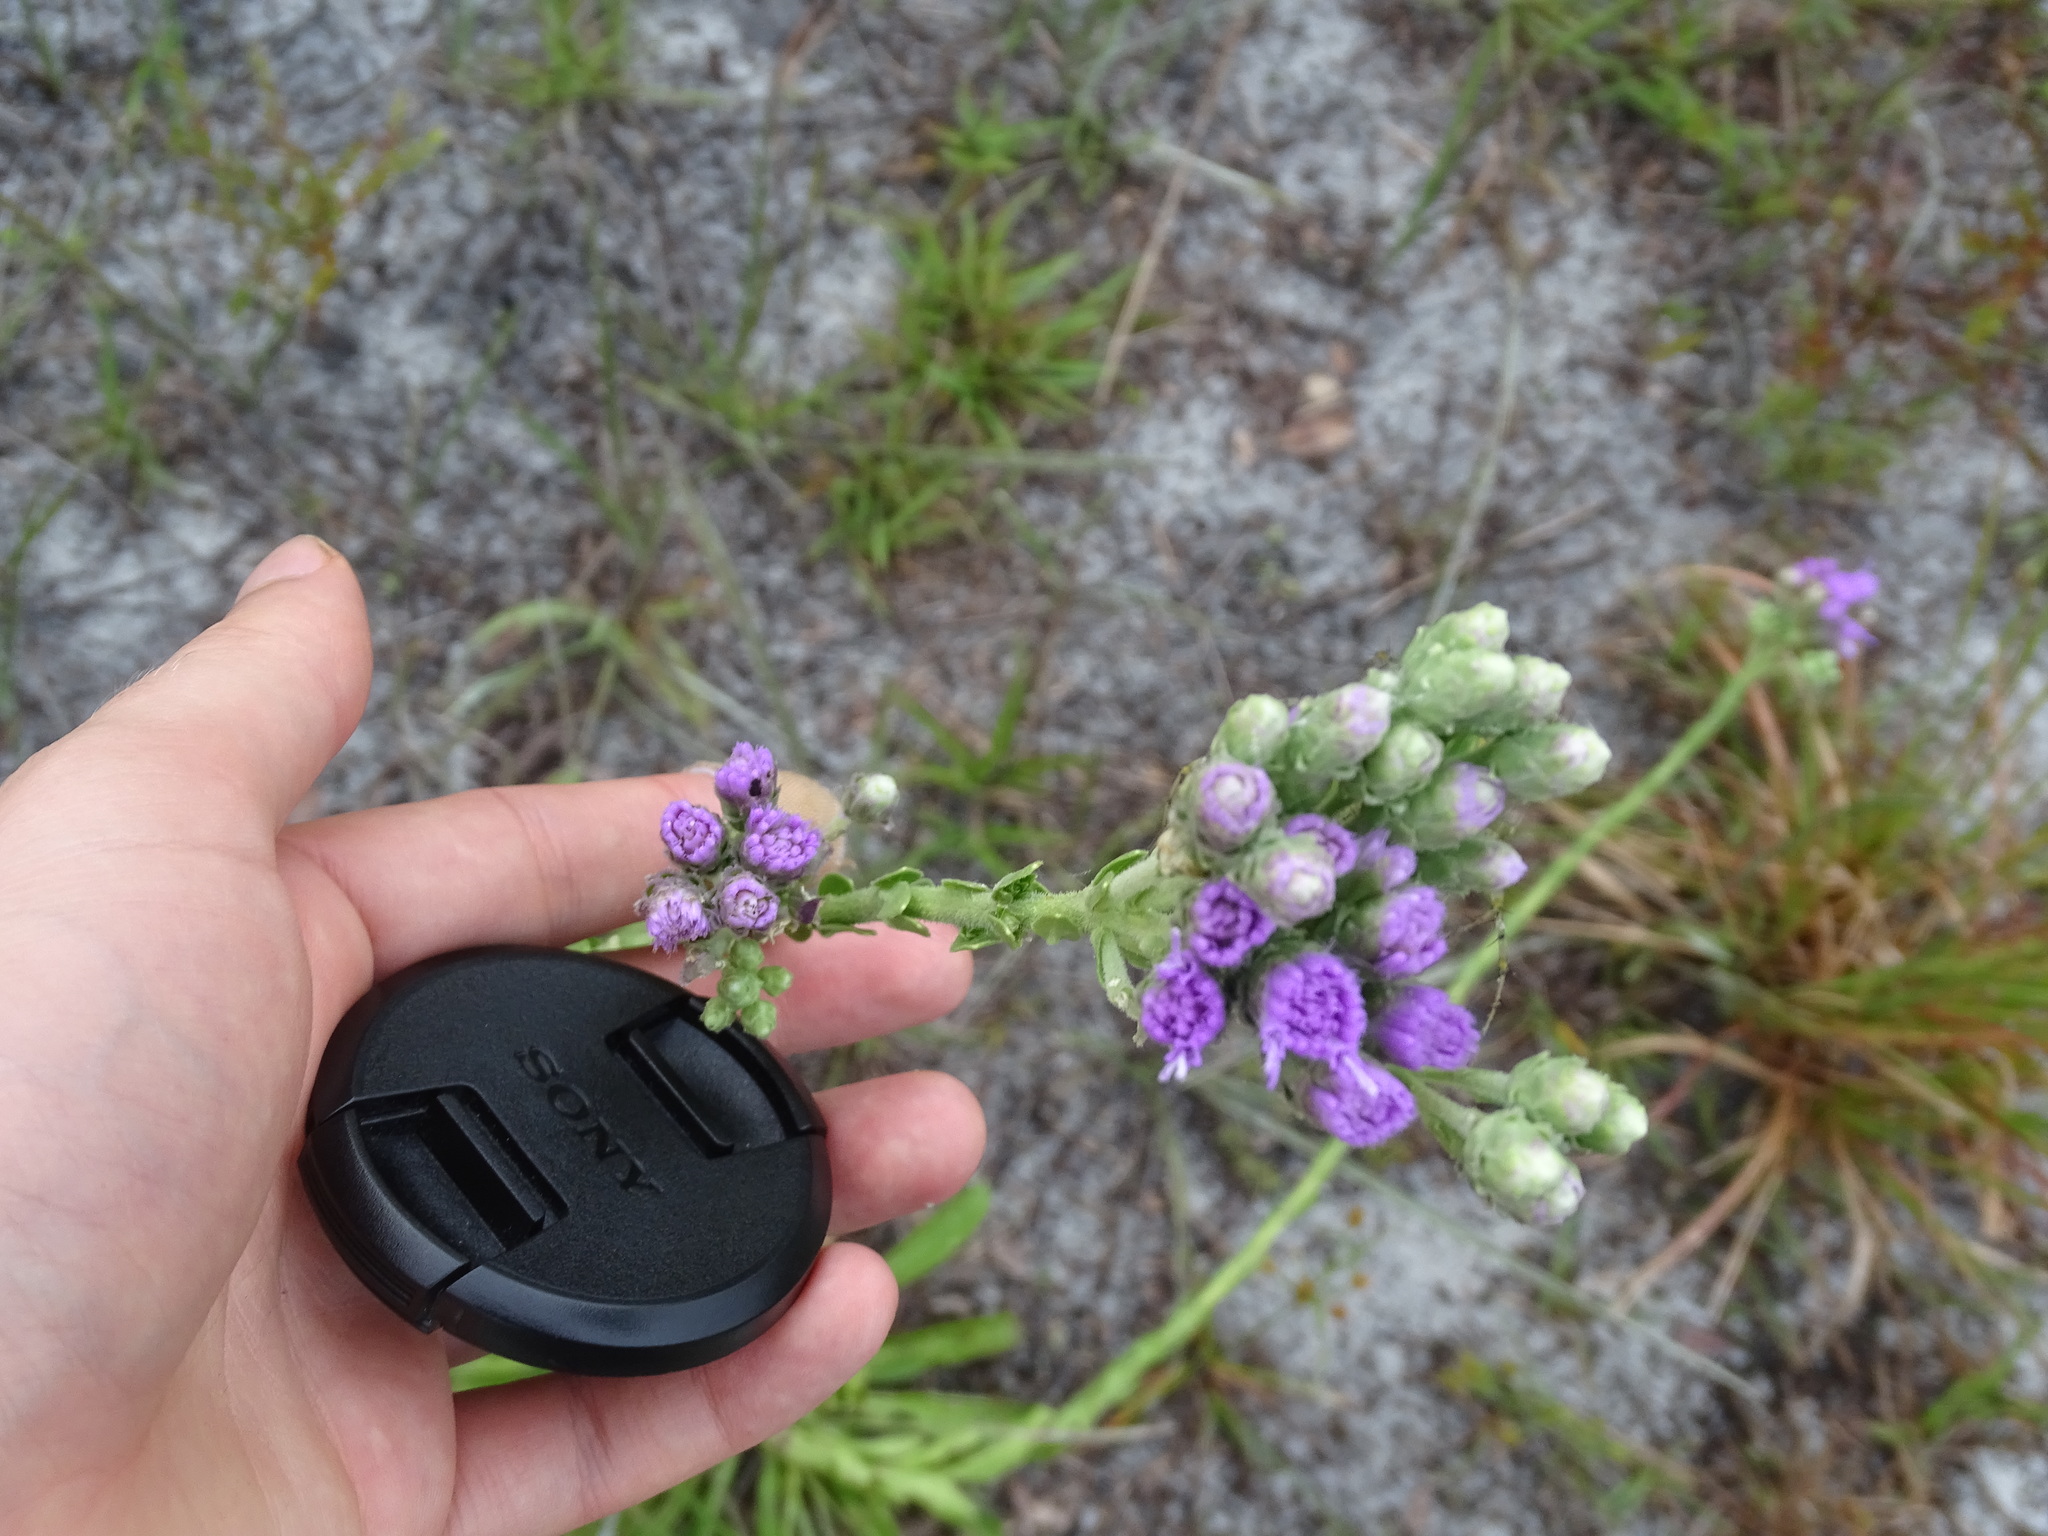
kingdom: Plantae
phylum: Tracheophyta
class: Magnoliopsida
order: Asterales
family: Asteraceae
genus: Carphephorus
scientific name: Carphephorus corymbosus
